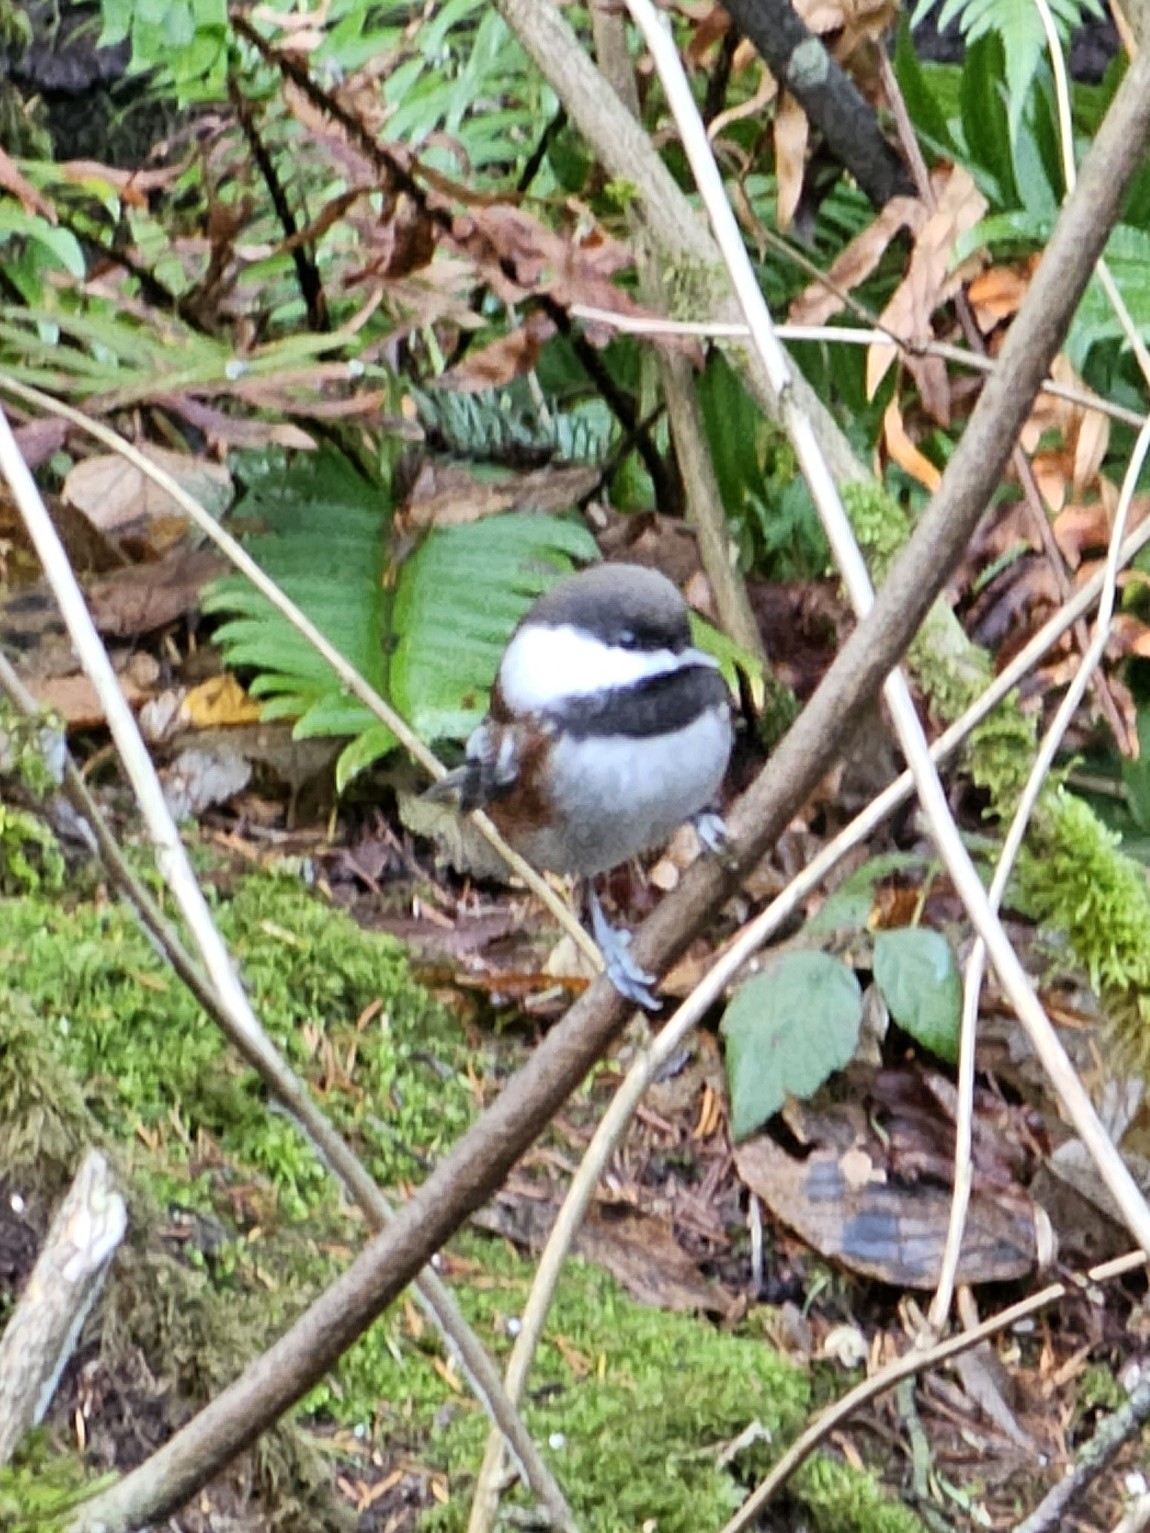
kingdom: Animalia
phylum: Chordata
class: Aves
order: Passeriformes
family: Paridae
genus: Poecile
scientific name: Poecile rufescens
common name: Chestnut-backed chickadee
